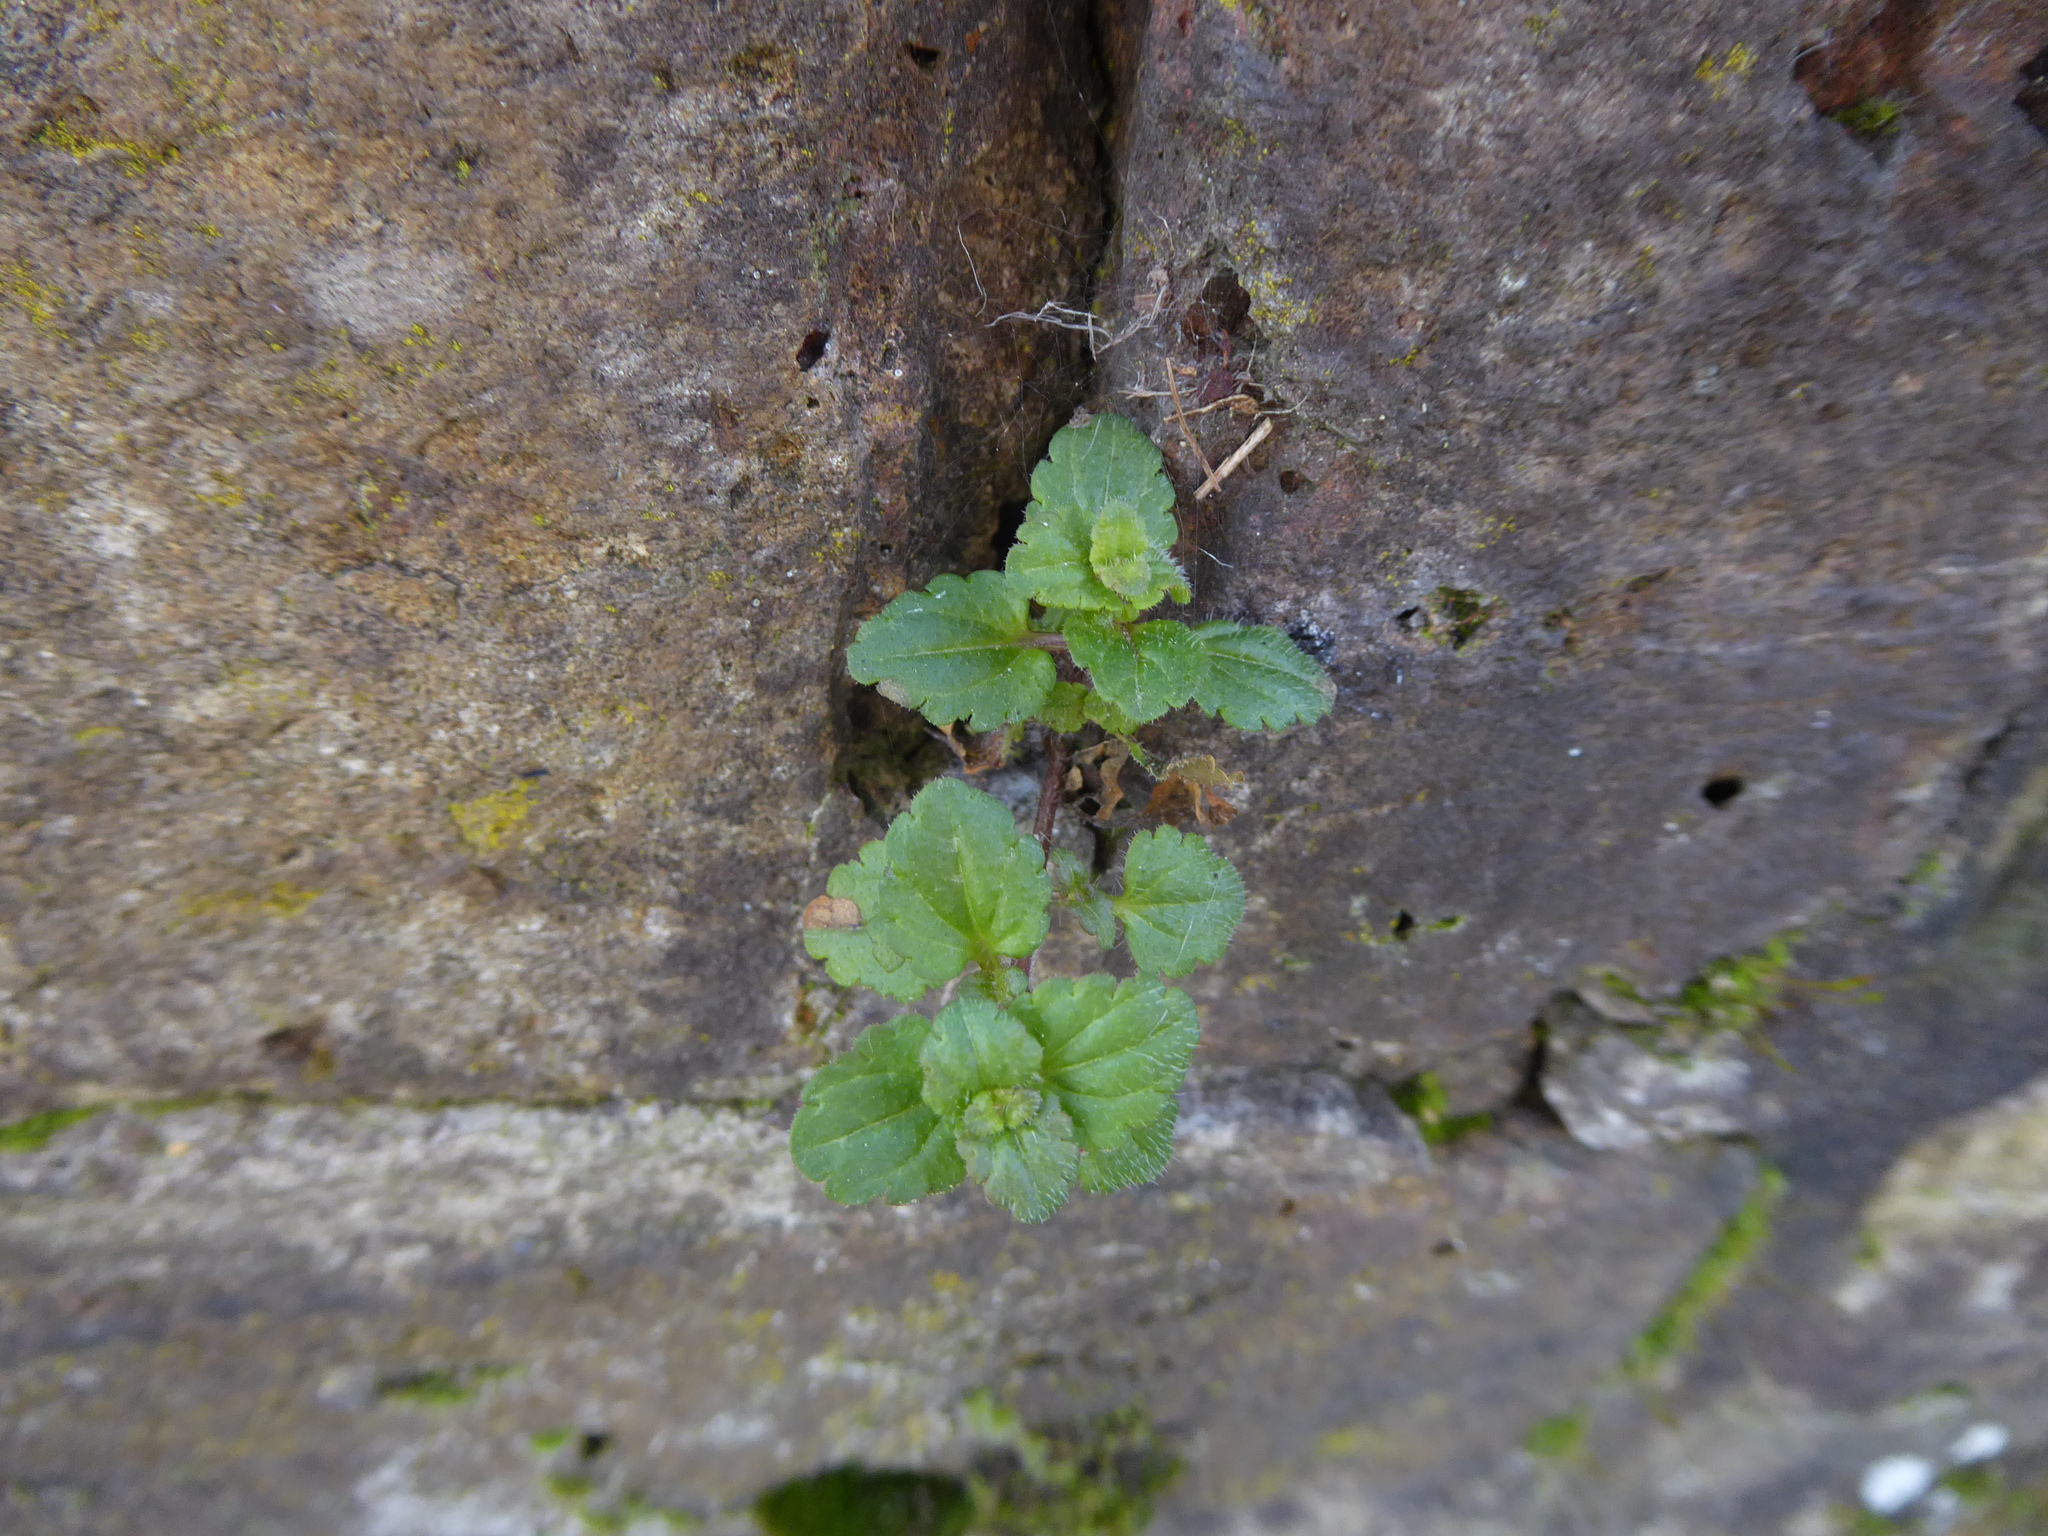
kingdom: Plantae
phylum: Tracheophyta
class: Magnoliopsida
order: Lamiales
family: Plantaginaceae
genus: Veronica
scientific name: Veronica arvensis
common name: Corn speedwell
